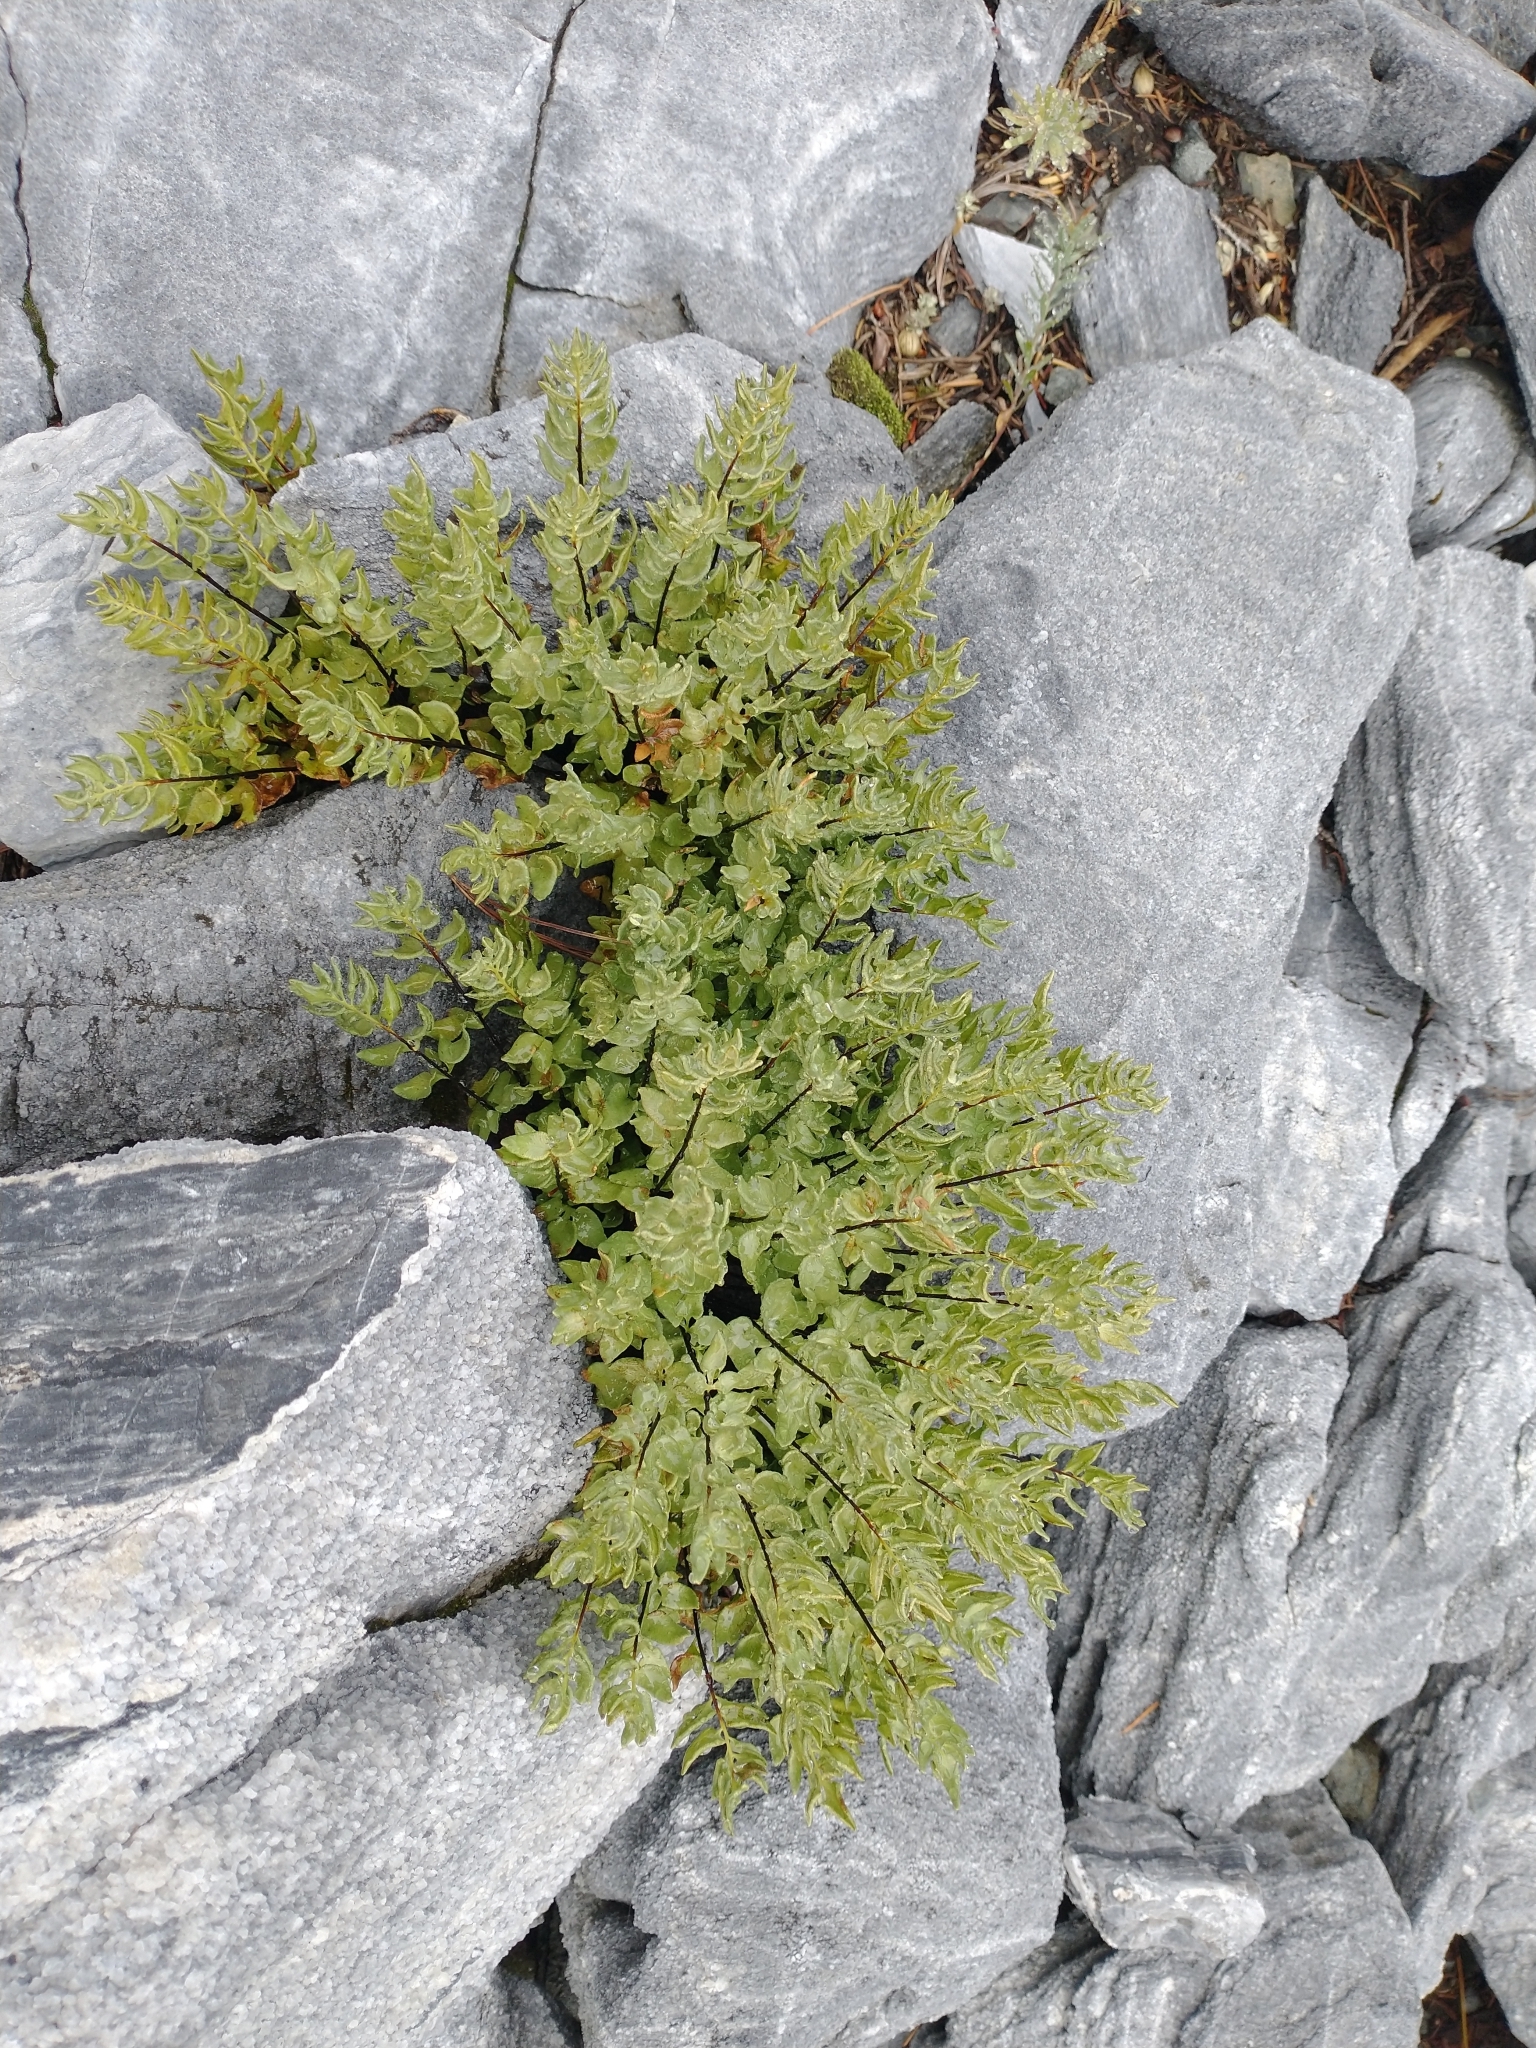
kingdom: Plantae
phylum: Tracheophyta
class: Polypodiopsida
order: Polypodiales
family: Pteridaceae
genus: Pellaea
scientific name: Pellaea breweri
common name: Brewer's cliffbrake
